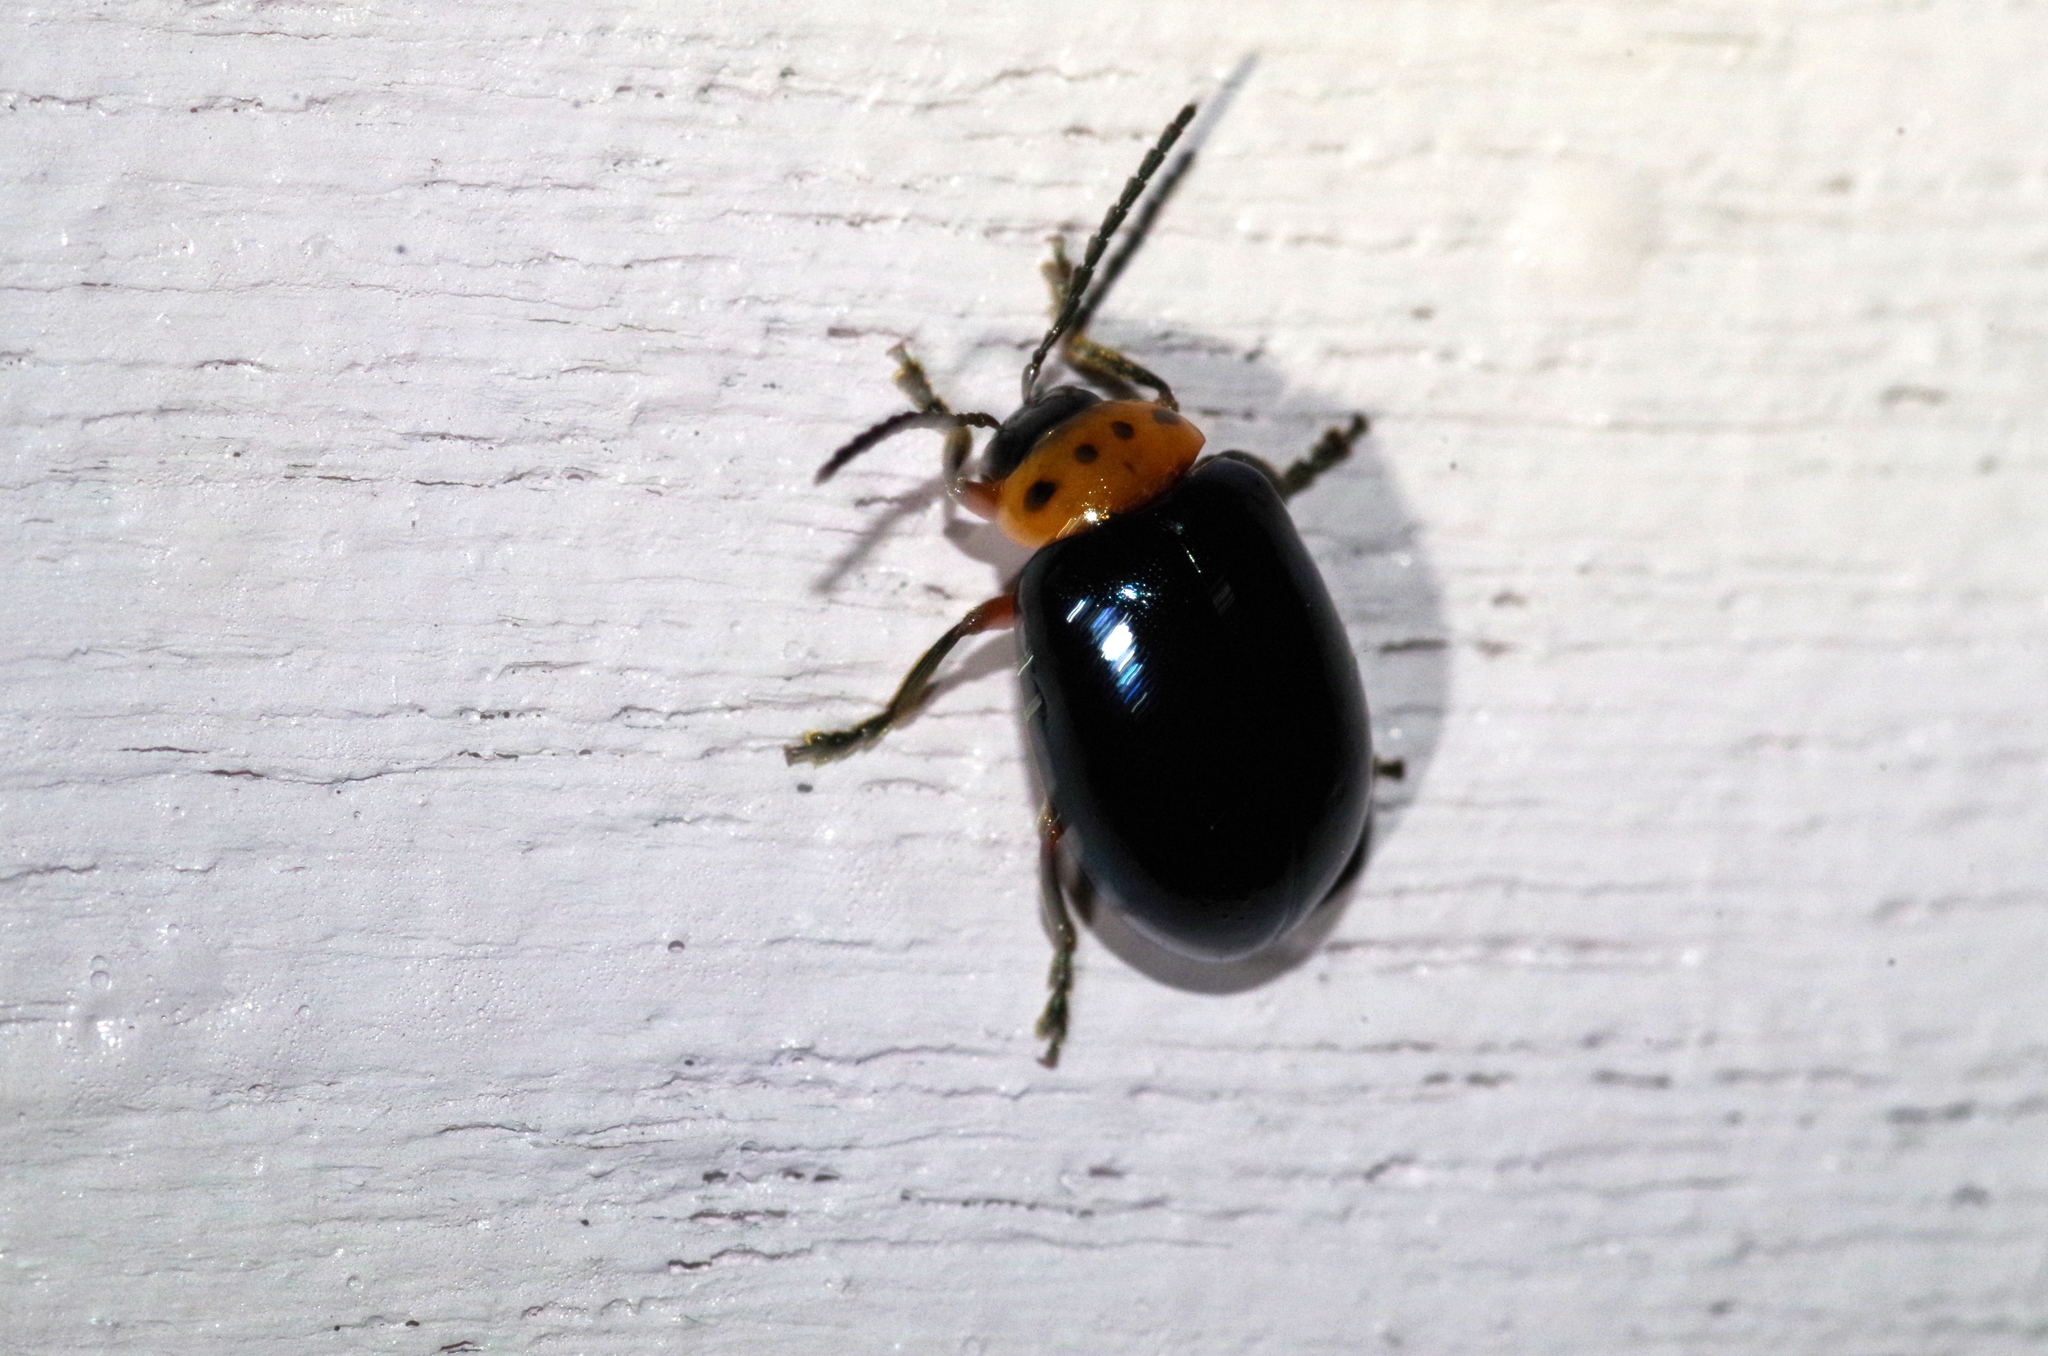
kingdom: Animalia
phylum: Arthropoda
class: Insecta
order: Coleoptera
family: Chrysomelidae
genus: Morphosphaera
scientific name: Morphosphaera caerulea
